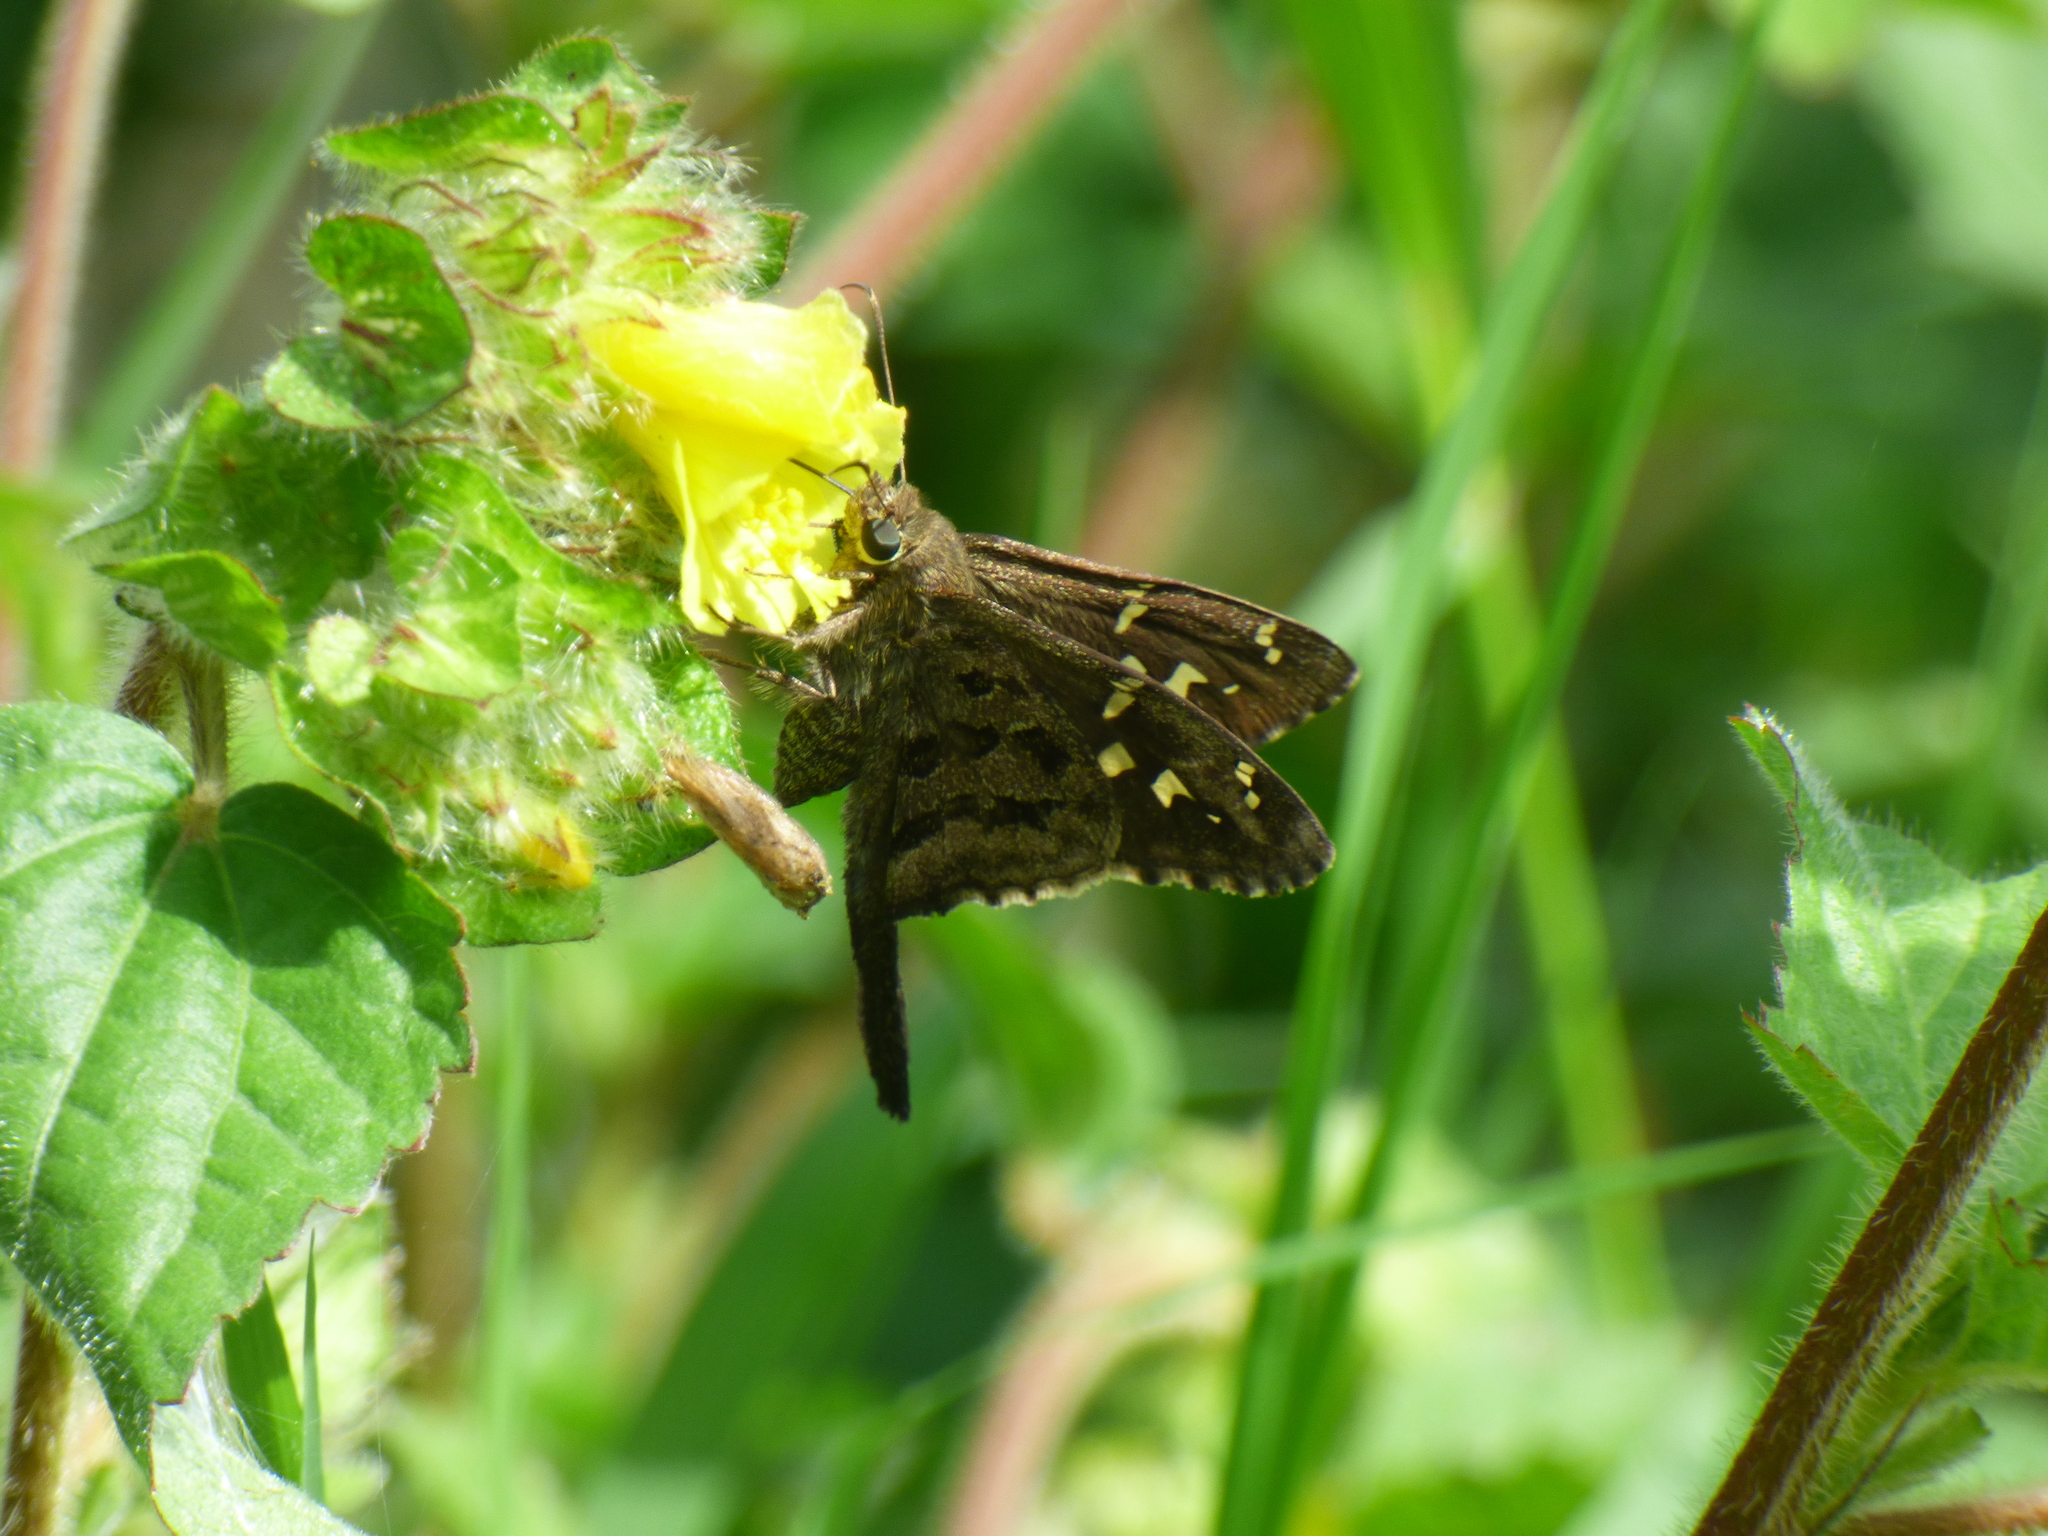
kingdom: Animalia
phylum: Arthropoda
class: Insecta
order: Lepidoptera
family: Hesperiidae
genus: Thorybes
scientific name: Thorybes
